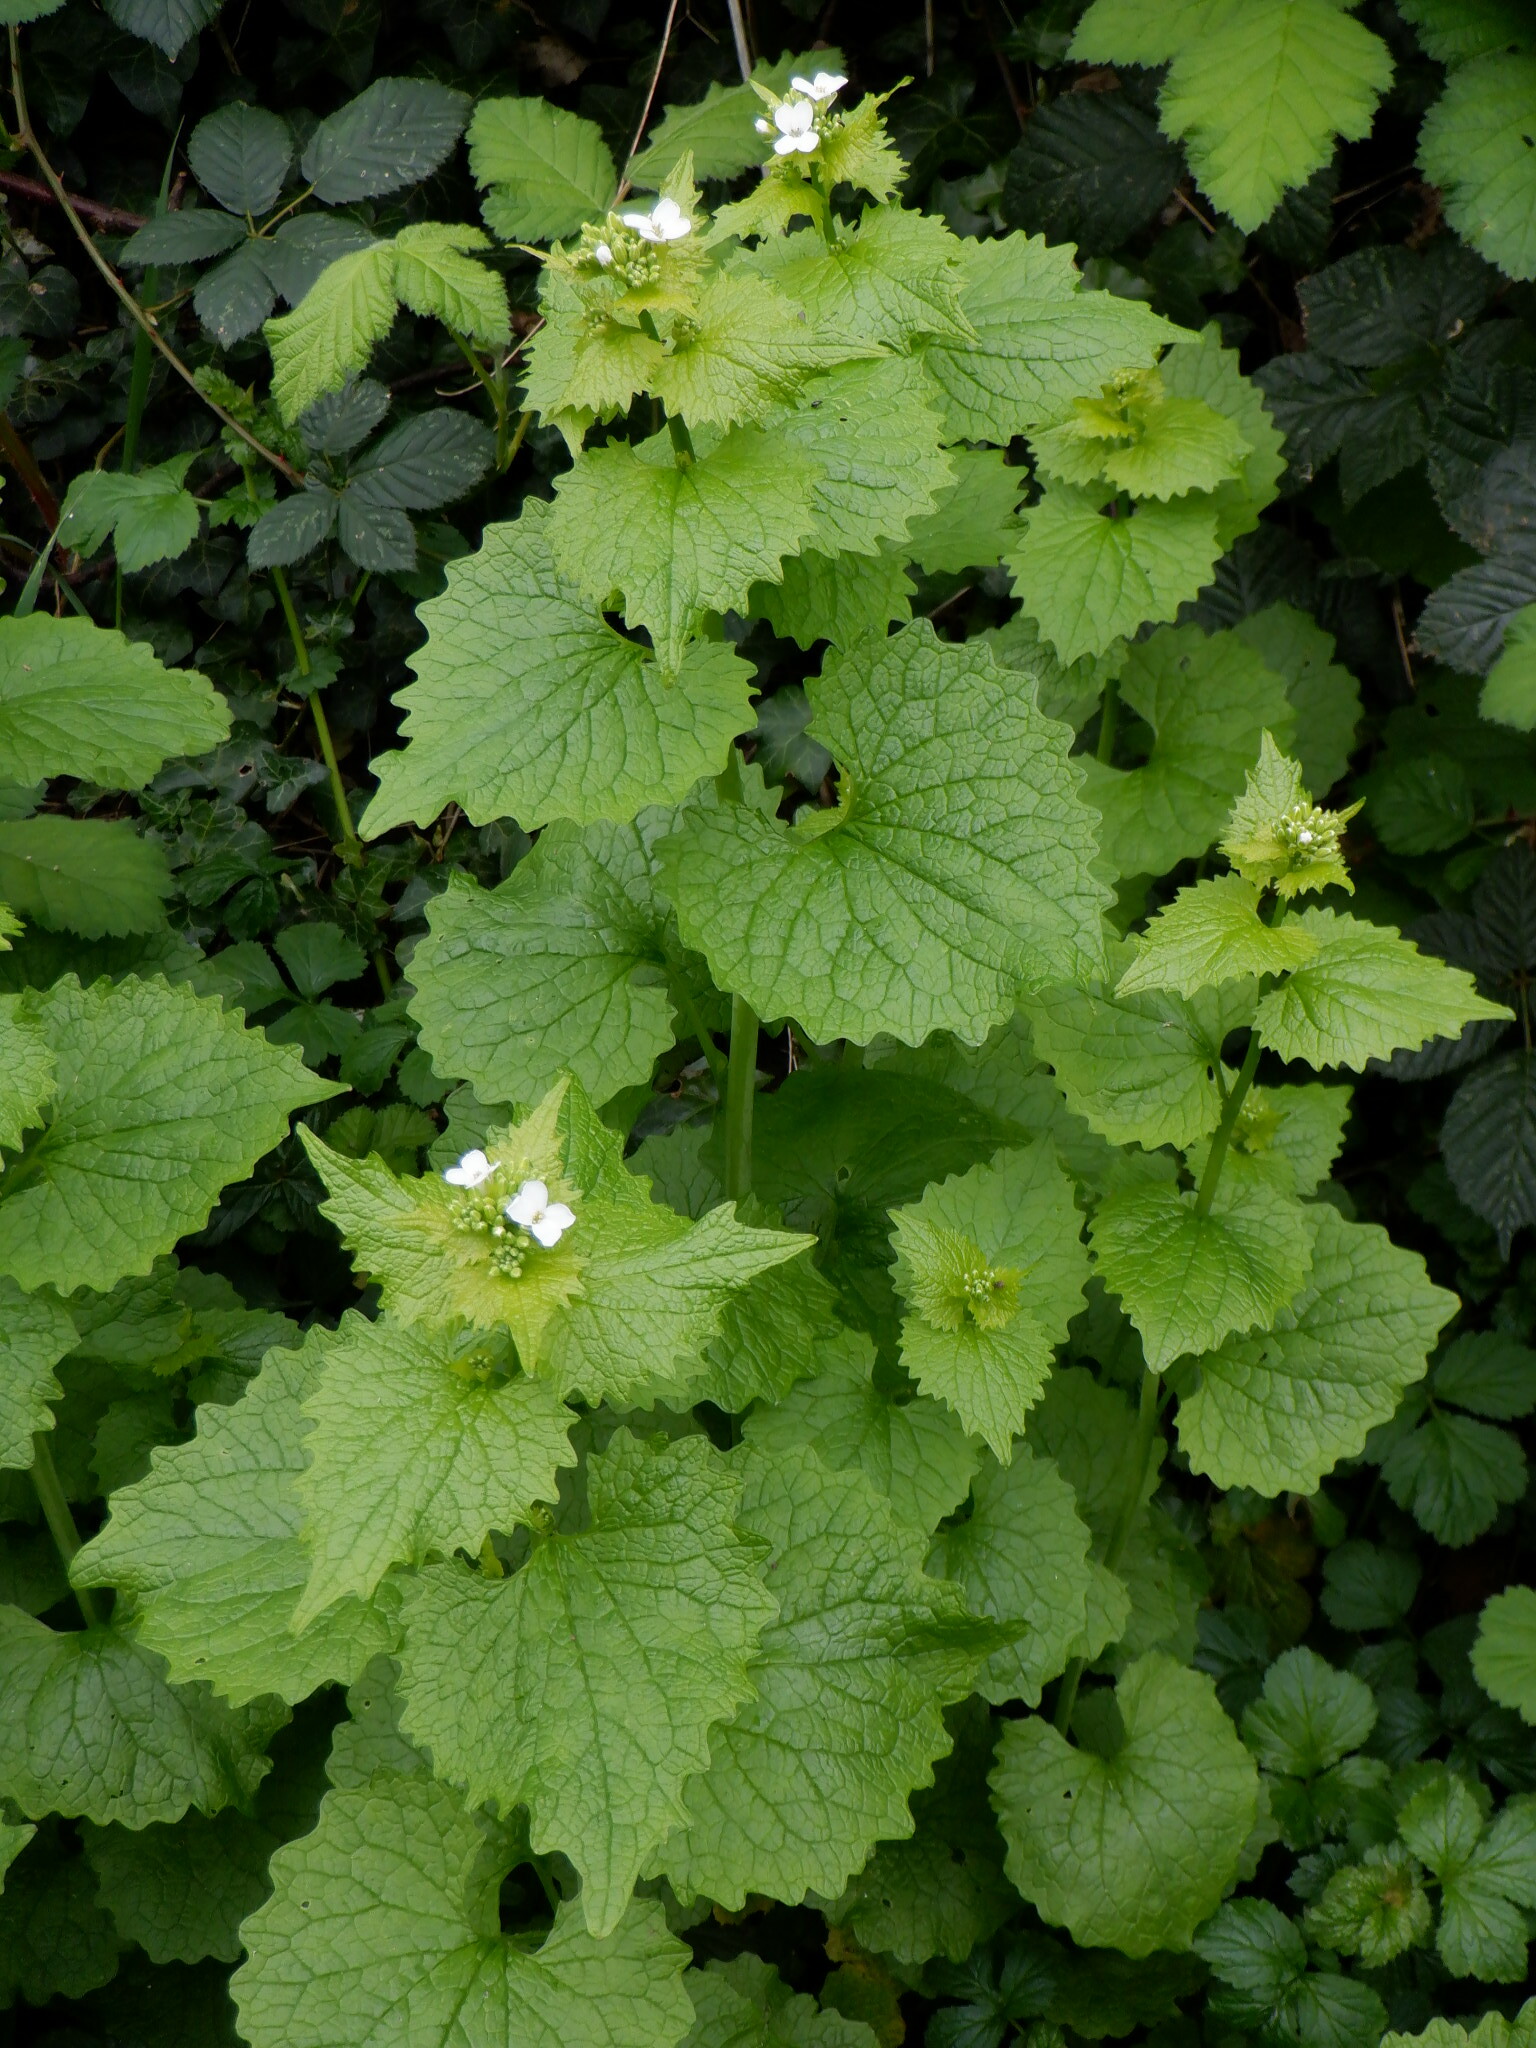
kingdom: Plantae
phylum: Tracheophyta
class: Magnoliopsida
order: Brassicales
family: Brassicaceae
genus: Alliaria
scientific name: Alliaria petiolata
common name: Garlic mustard
